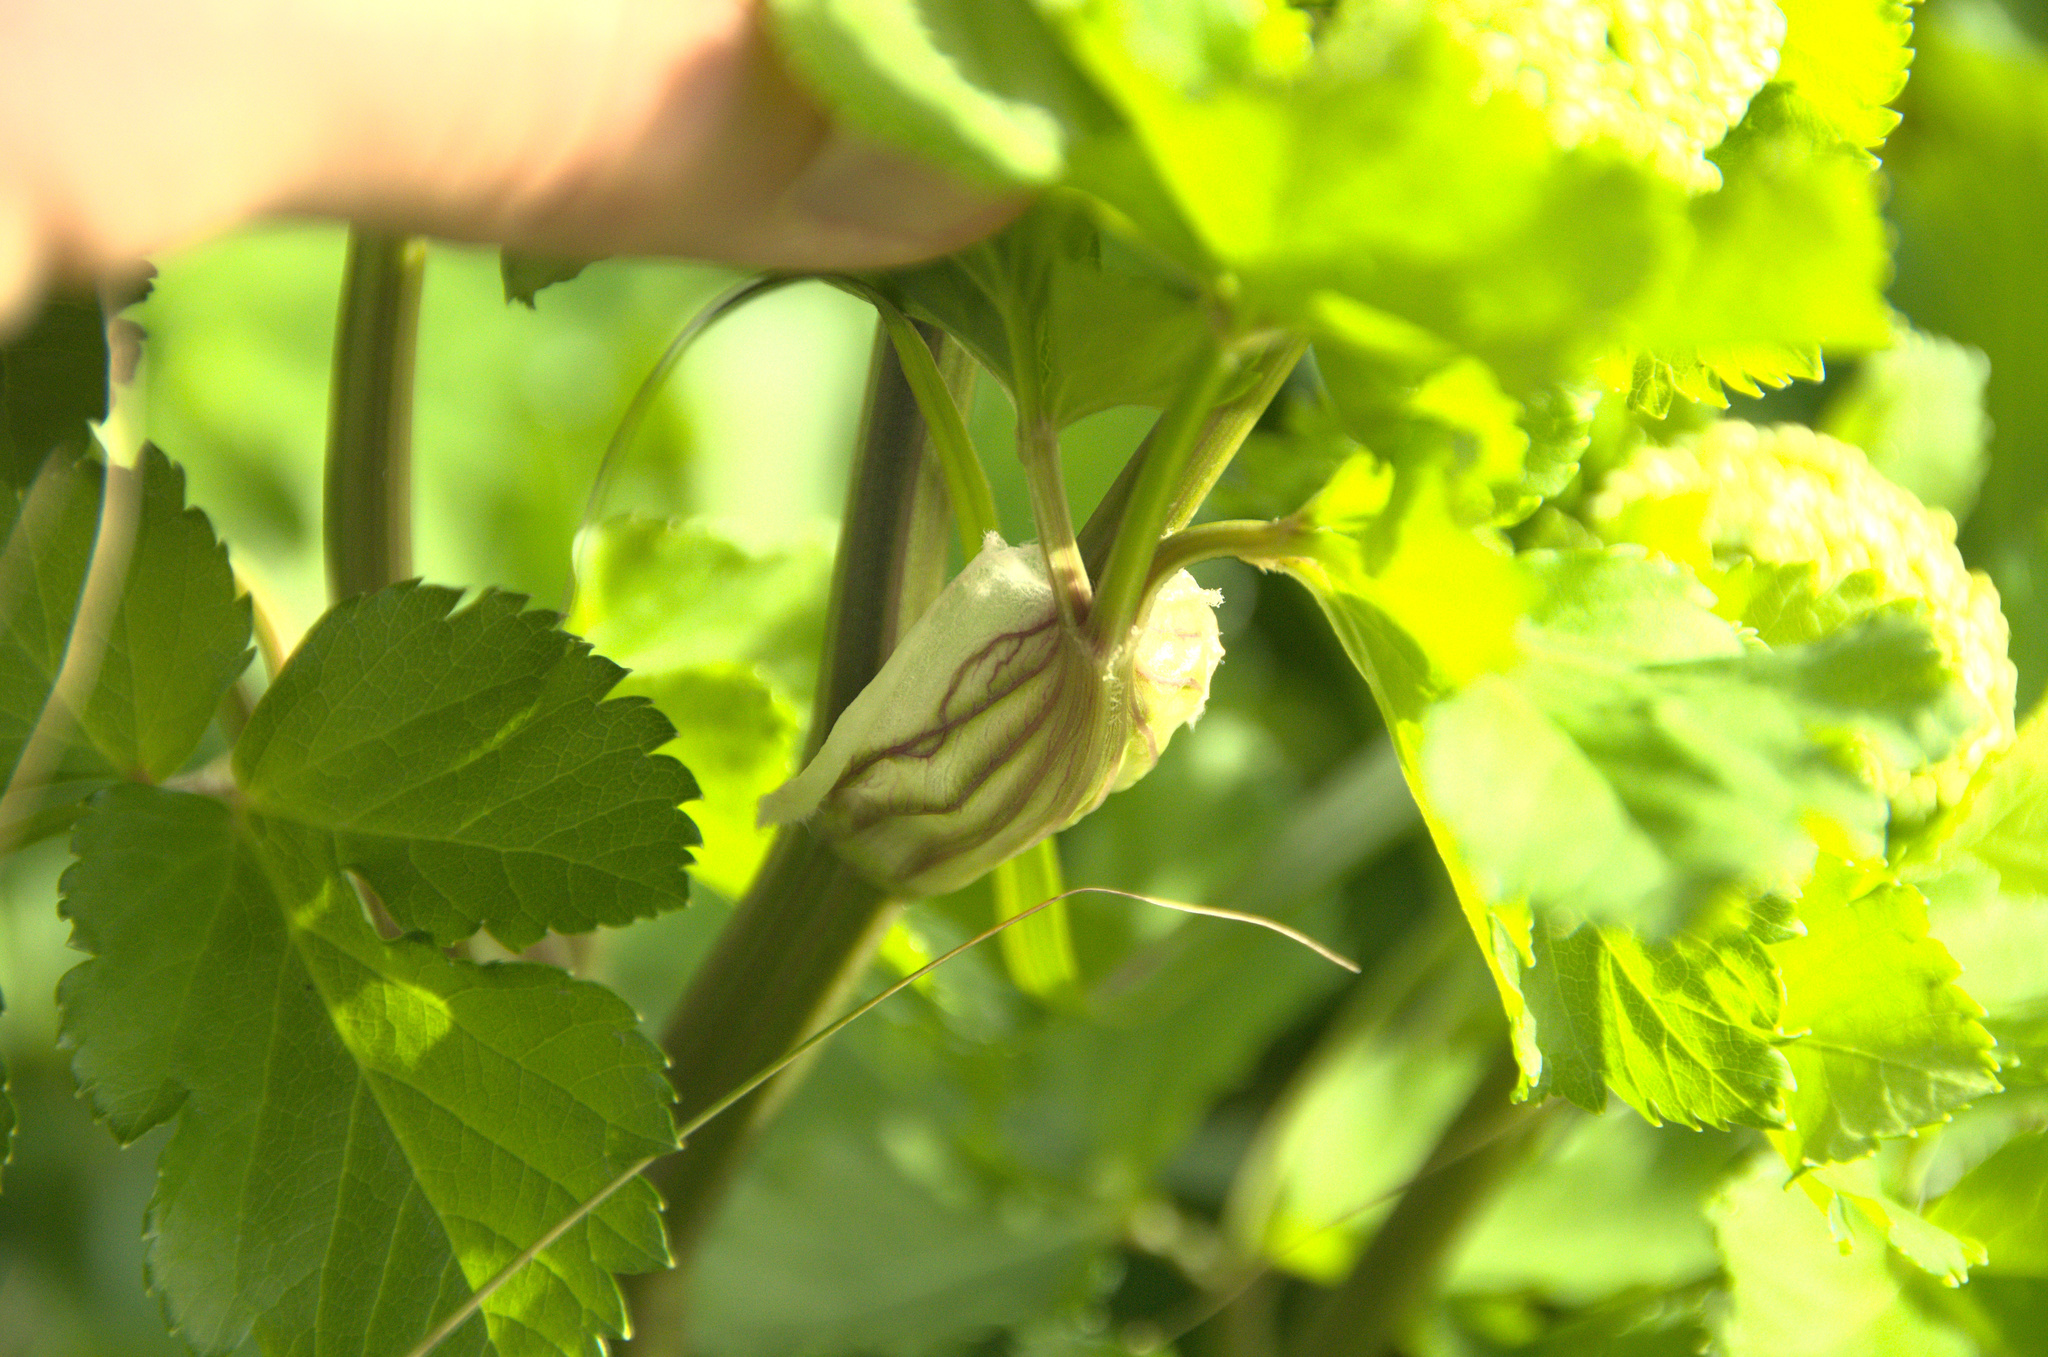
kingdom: Plantae
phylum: Tracheophyta
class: Magnoliopsida
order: Apiales
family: Apiaceae
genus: Smyrnium
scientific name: Smyrnium olusatrum
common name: Alexanders
